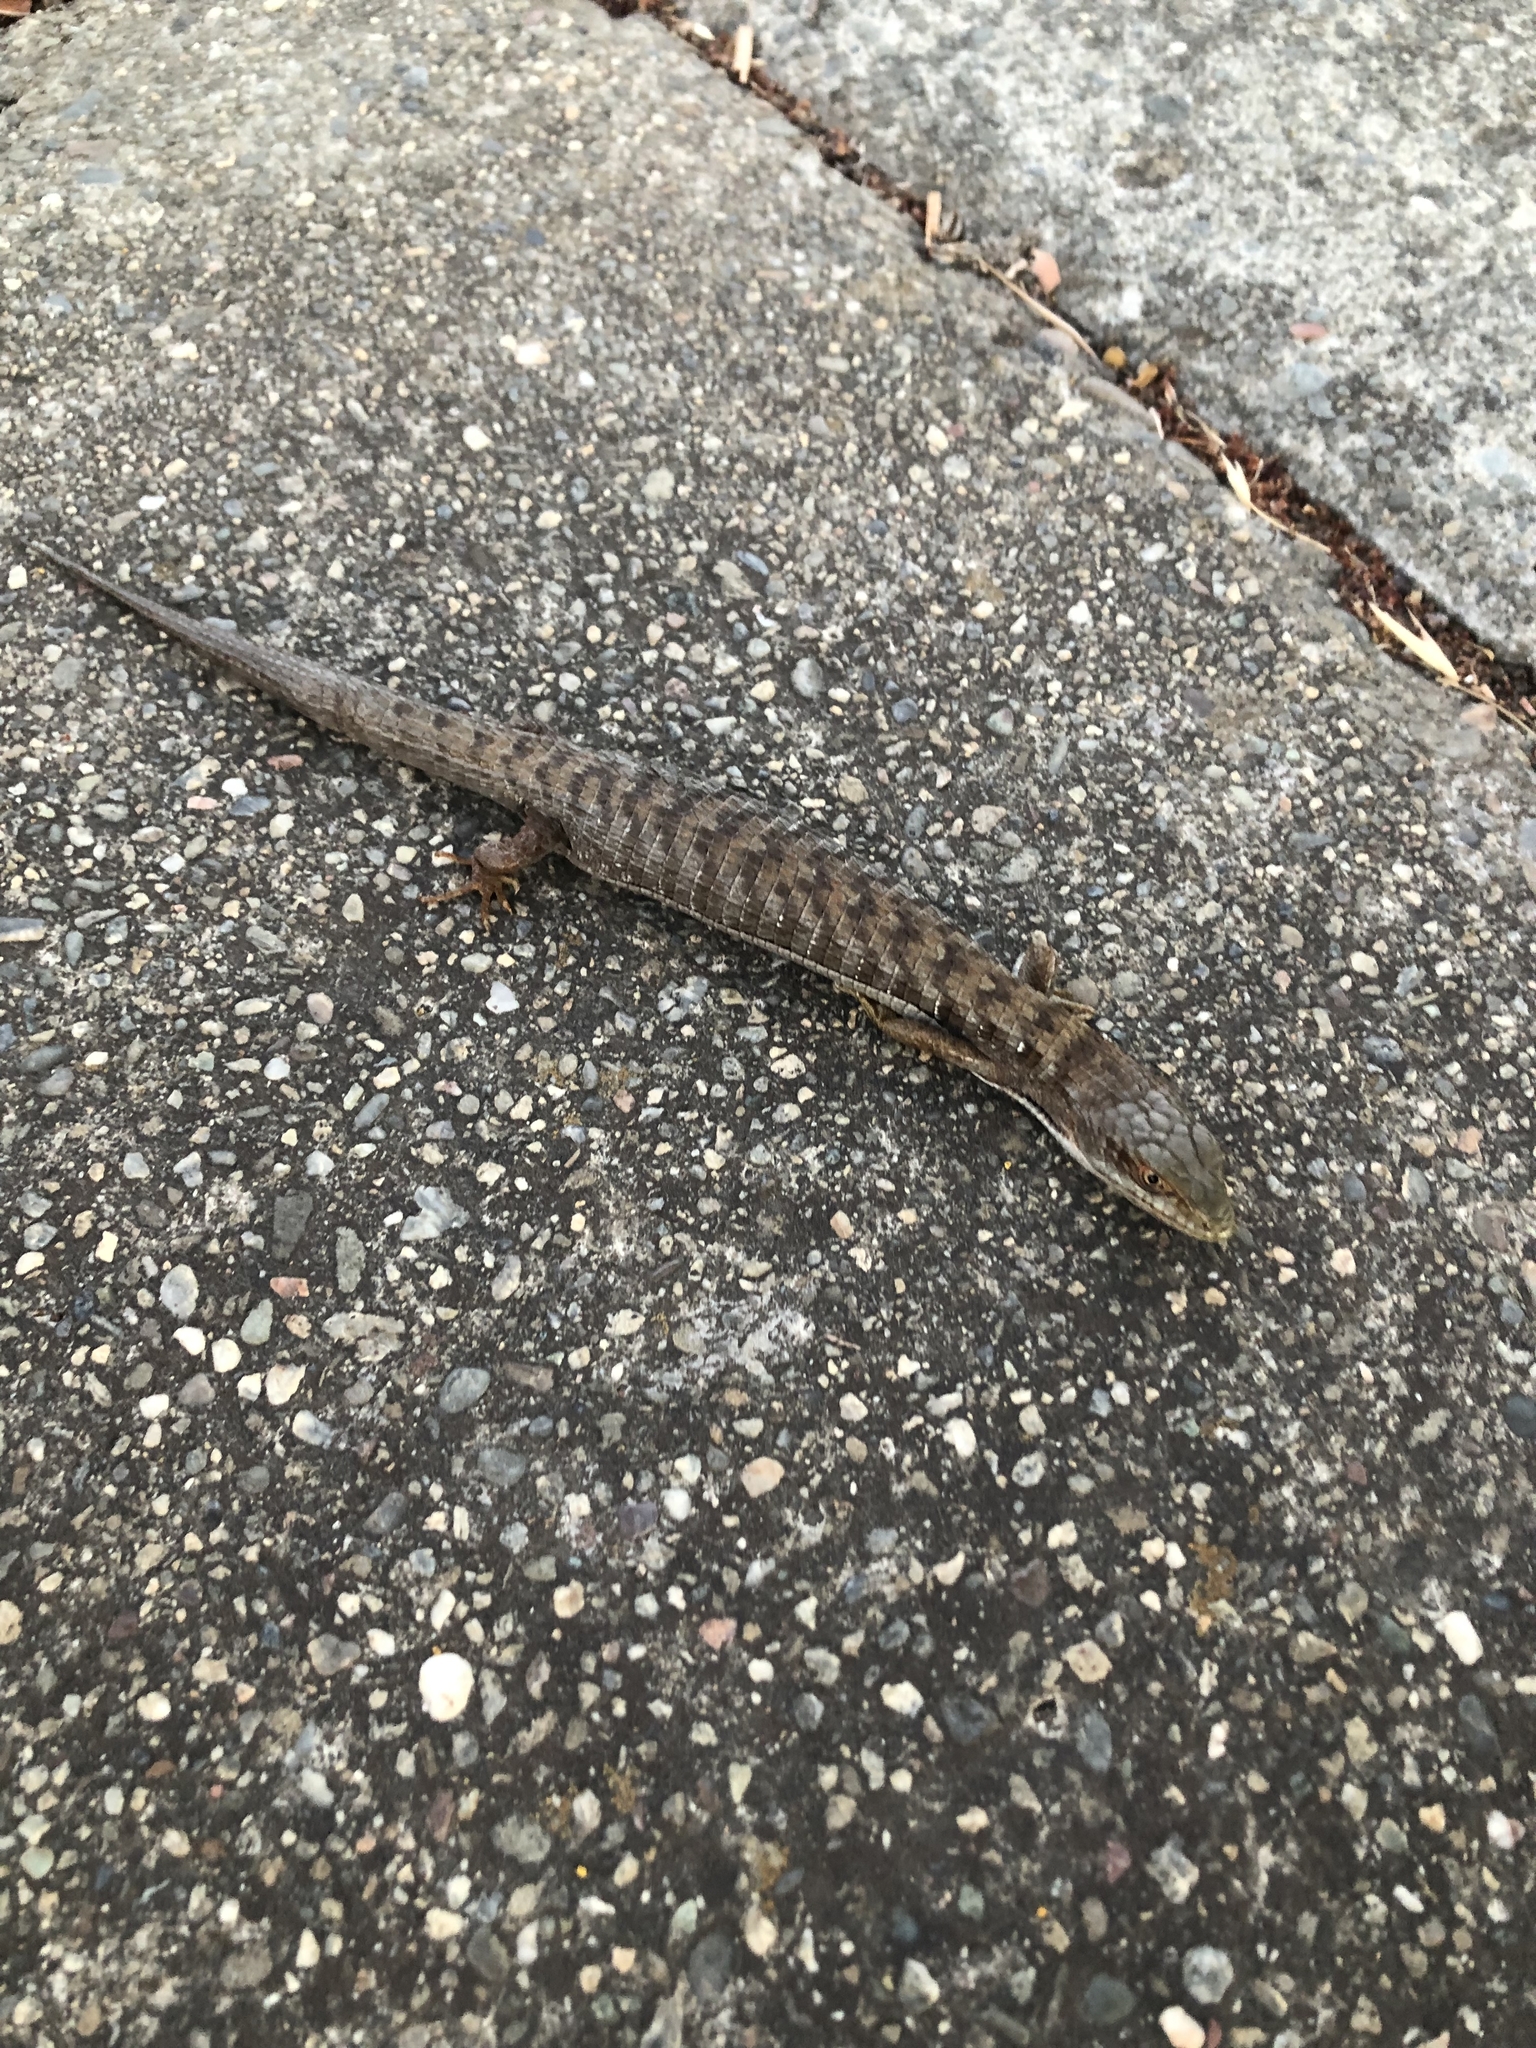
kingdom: Animalia
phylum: Chordata
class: Squamata
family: Anguidae
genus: Elgaria
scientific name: Elgaria multicarinata
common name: Southern alligator lizard
